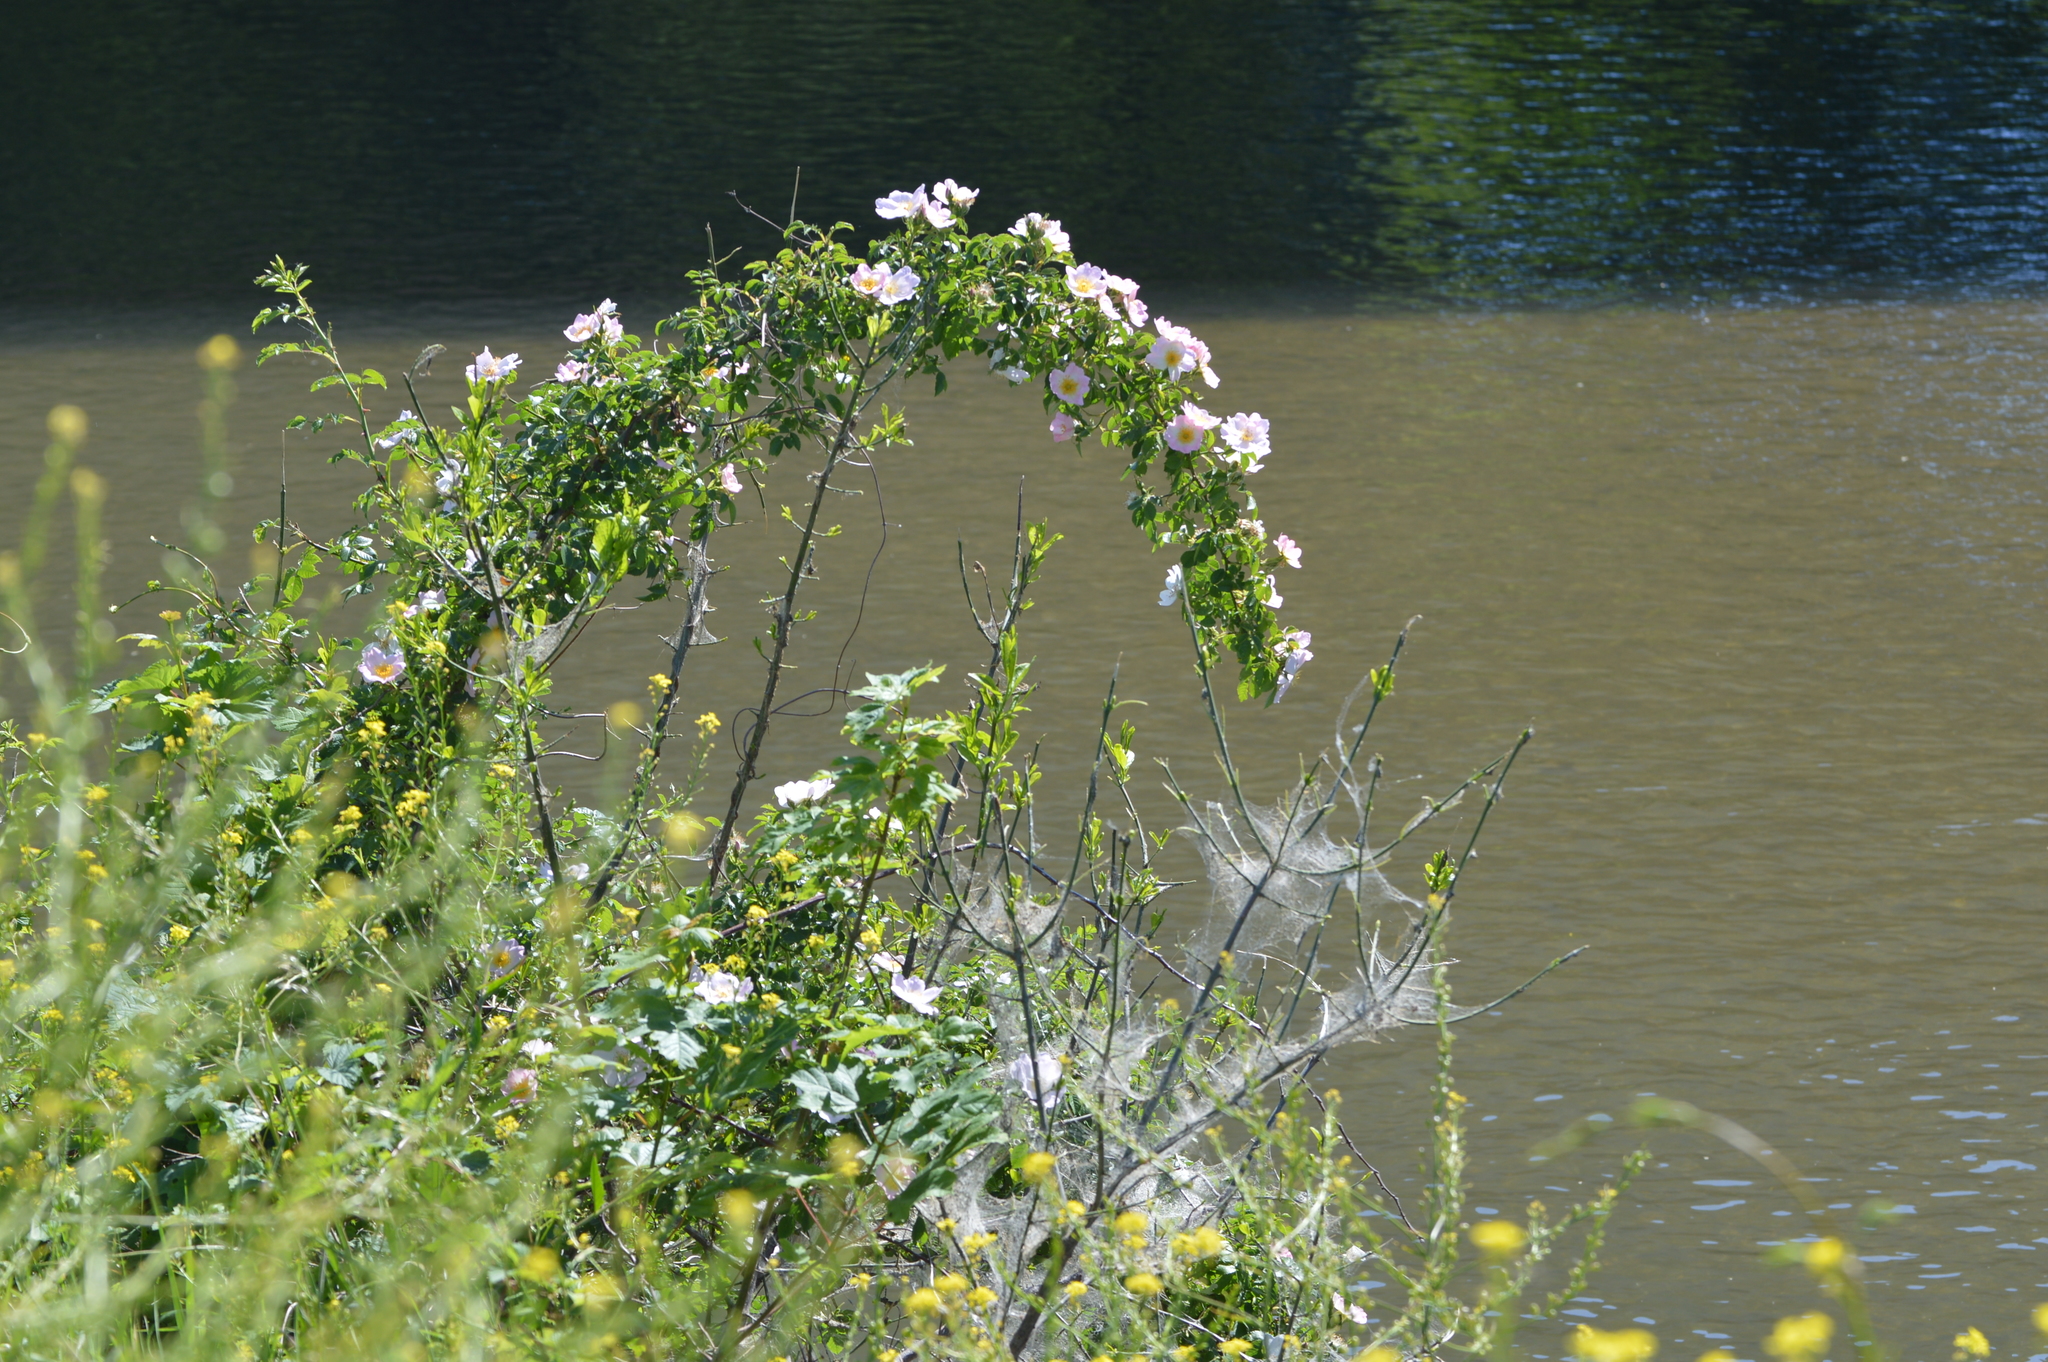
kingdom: Plantae
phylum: Tracheophyta
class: Magnoliopsida
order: Rosales
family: Rosaceae
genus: Rosa
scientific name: Rosa canina
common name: Dog rose
